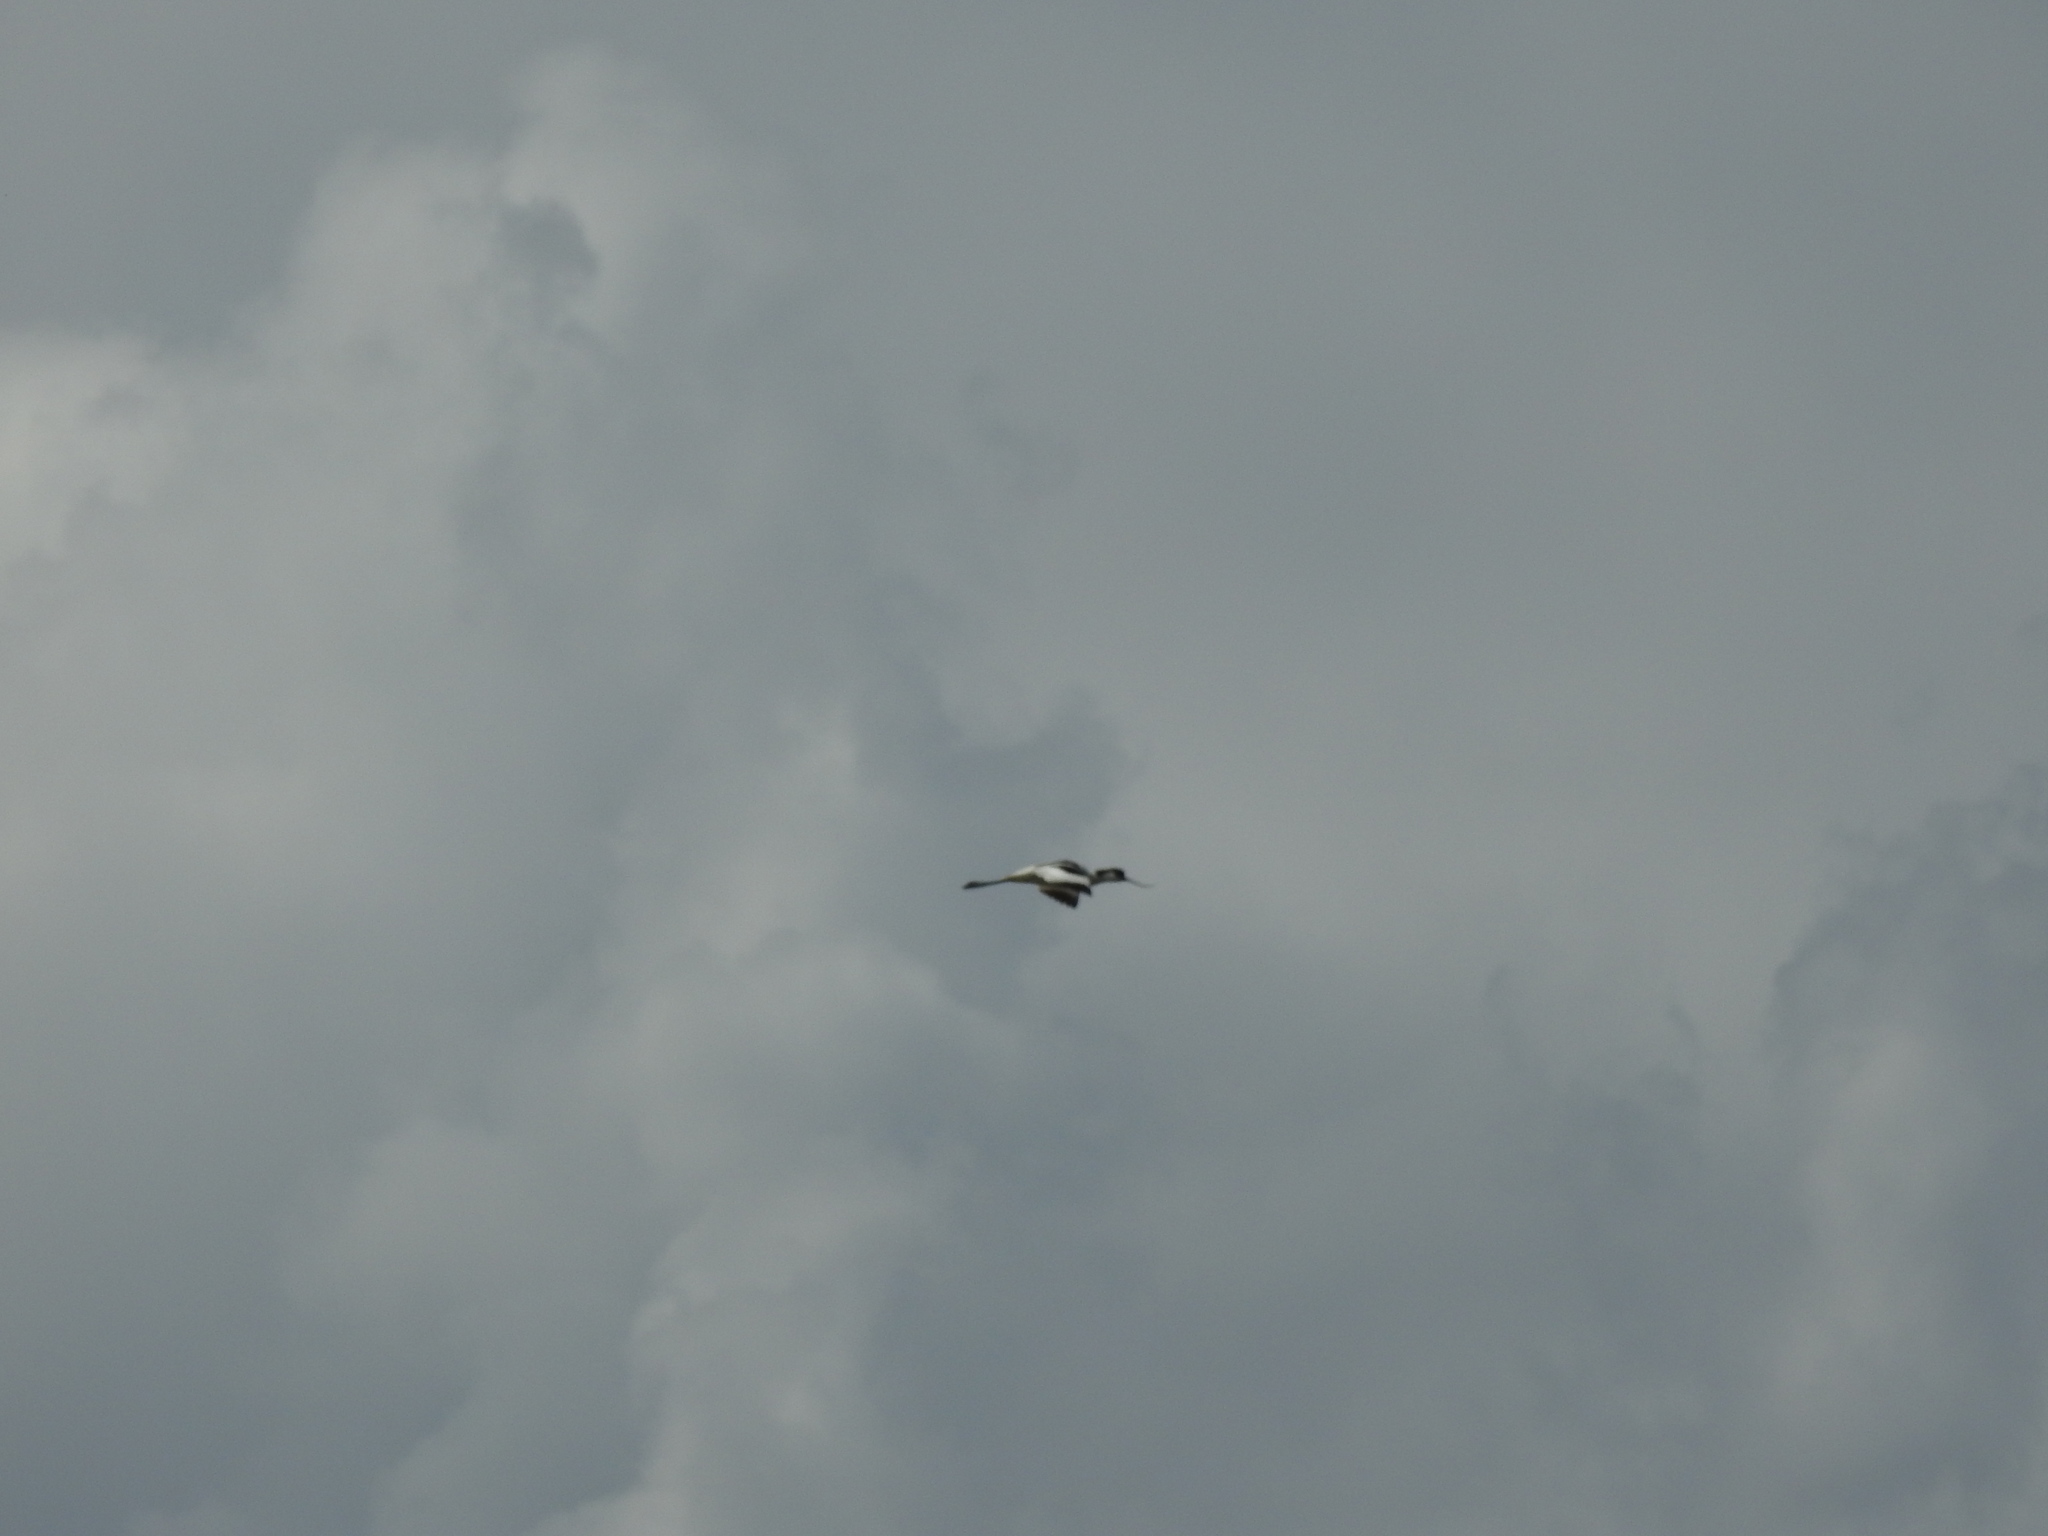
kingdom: Animalia
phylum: Chordata
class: Aves
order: Charadriiformes
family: Recurvirostridae
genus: Recurvirostra
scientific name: Recurvirostra avosetta
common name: Pied avocet
